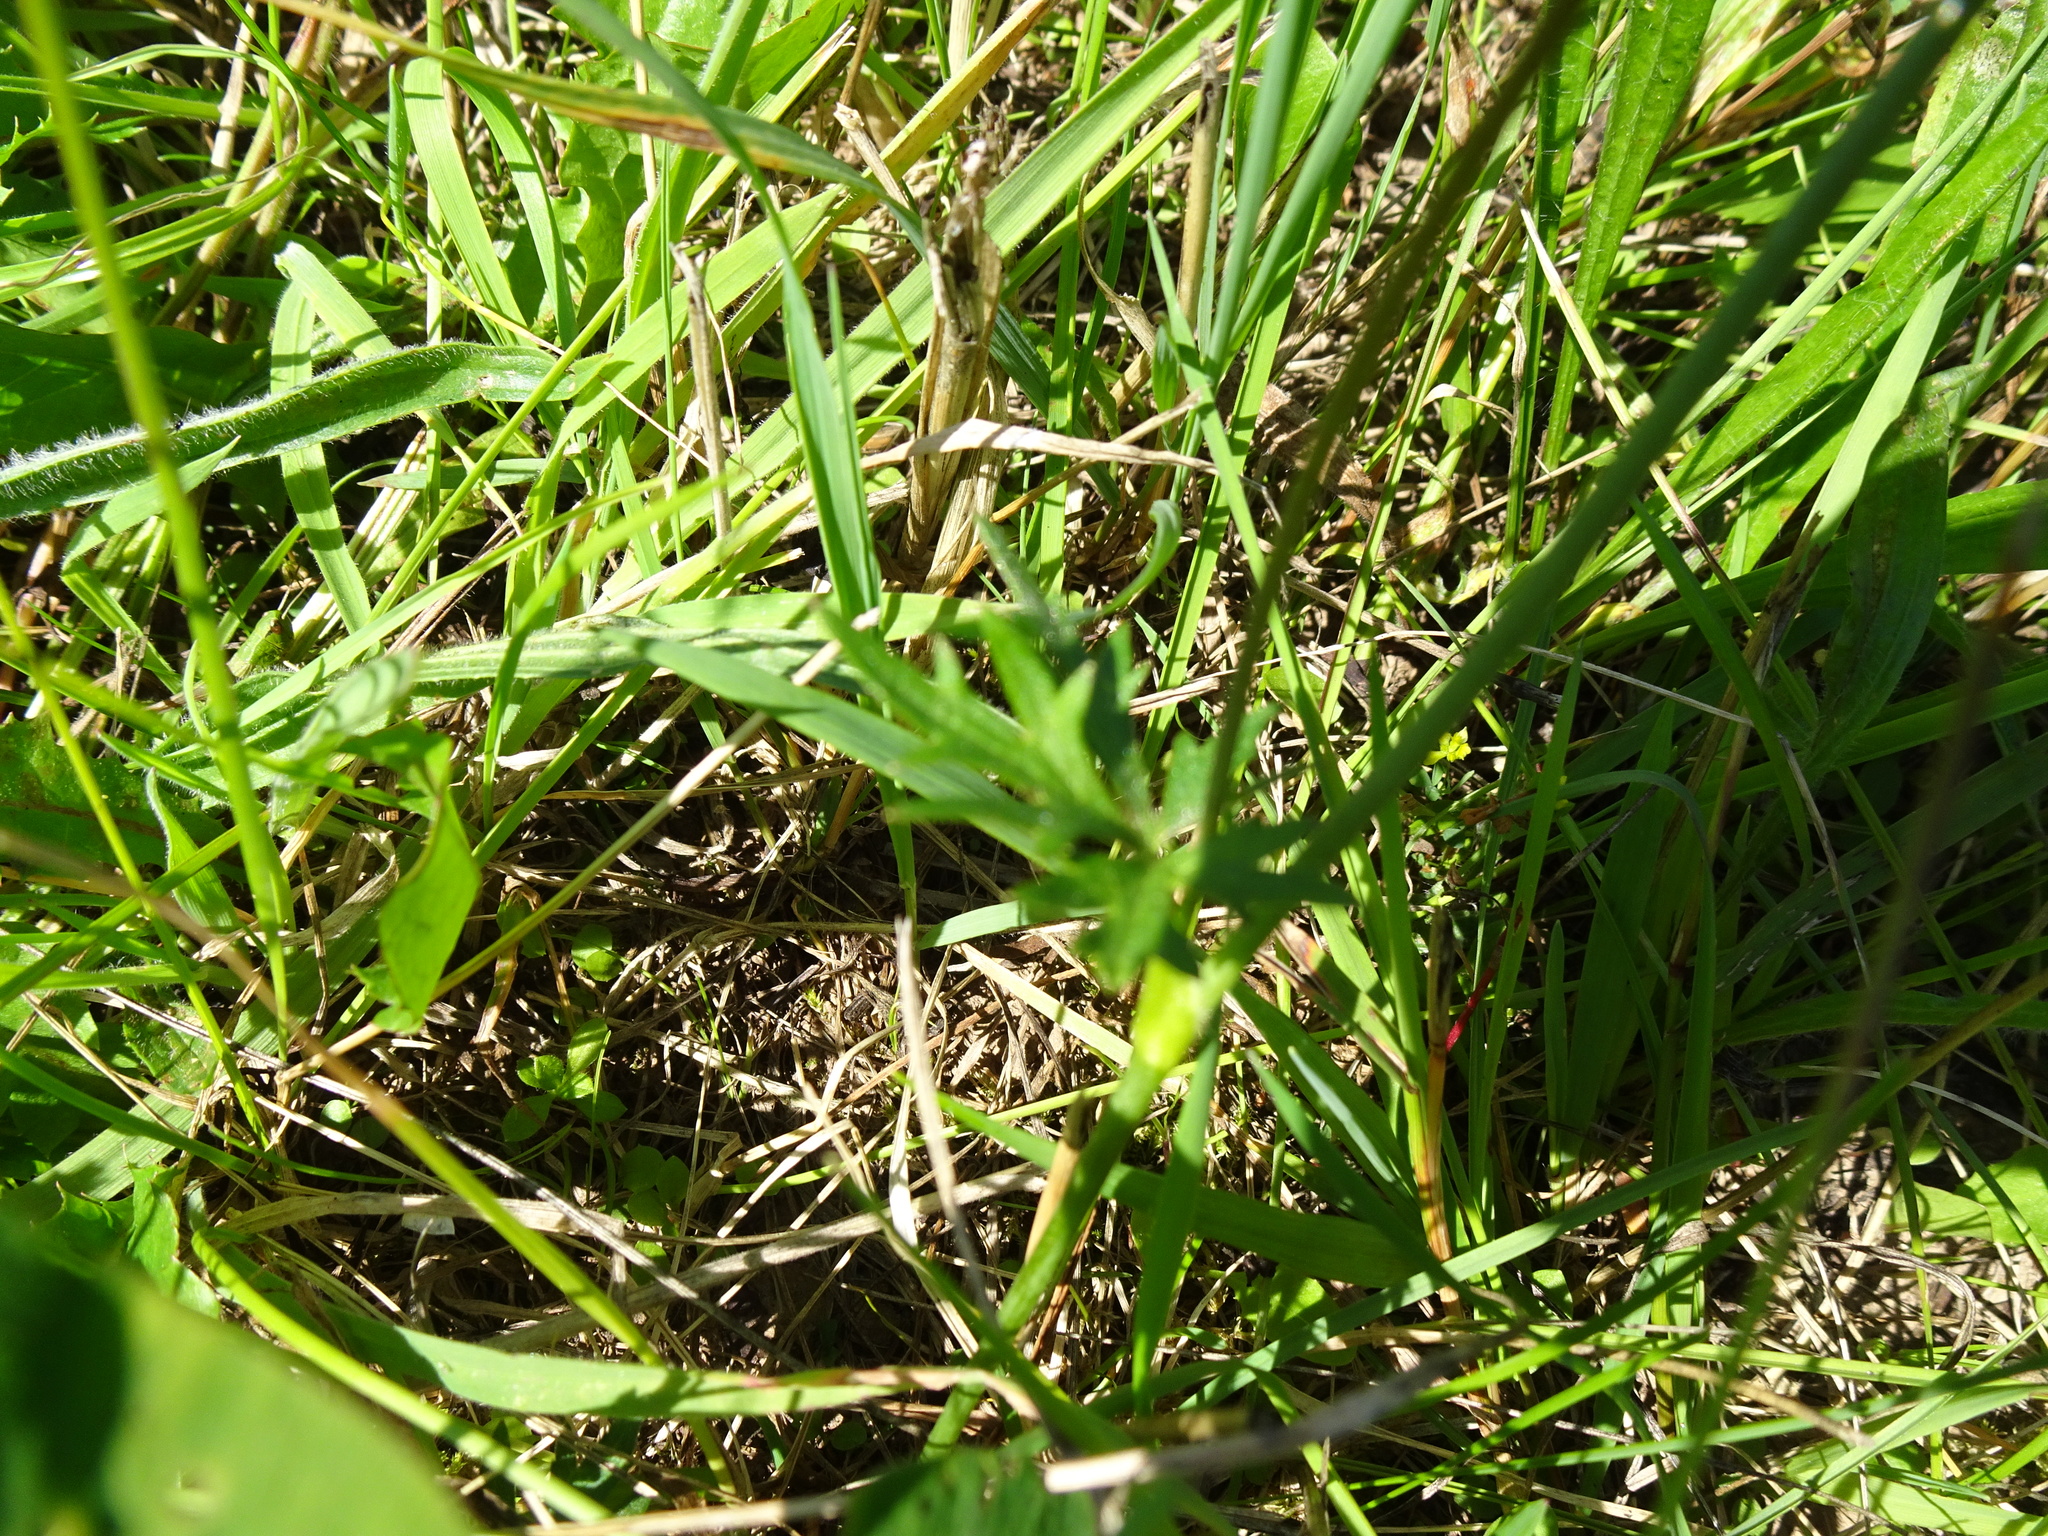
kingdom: Plantae
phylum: Tracheophyta
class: Magnoliopsida
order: Ranunculales
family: Ranunculaceae
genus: Ranunculus
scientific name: Ranunculus acris
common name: Meadow buttercup
